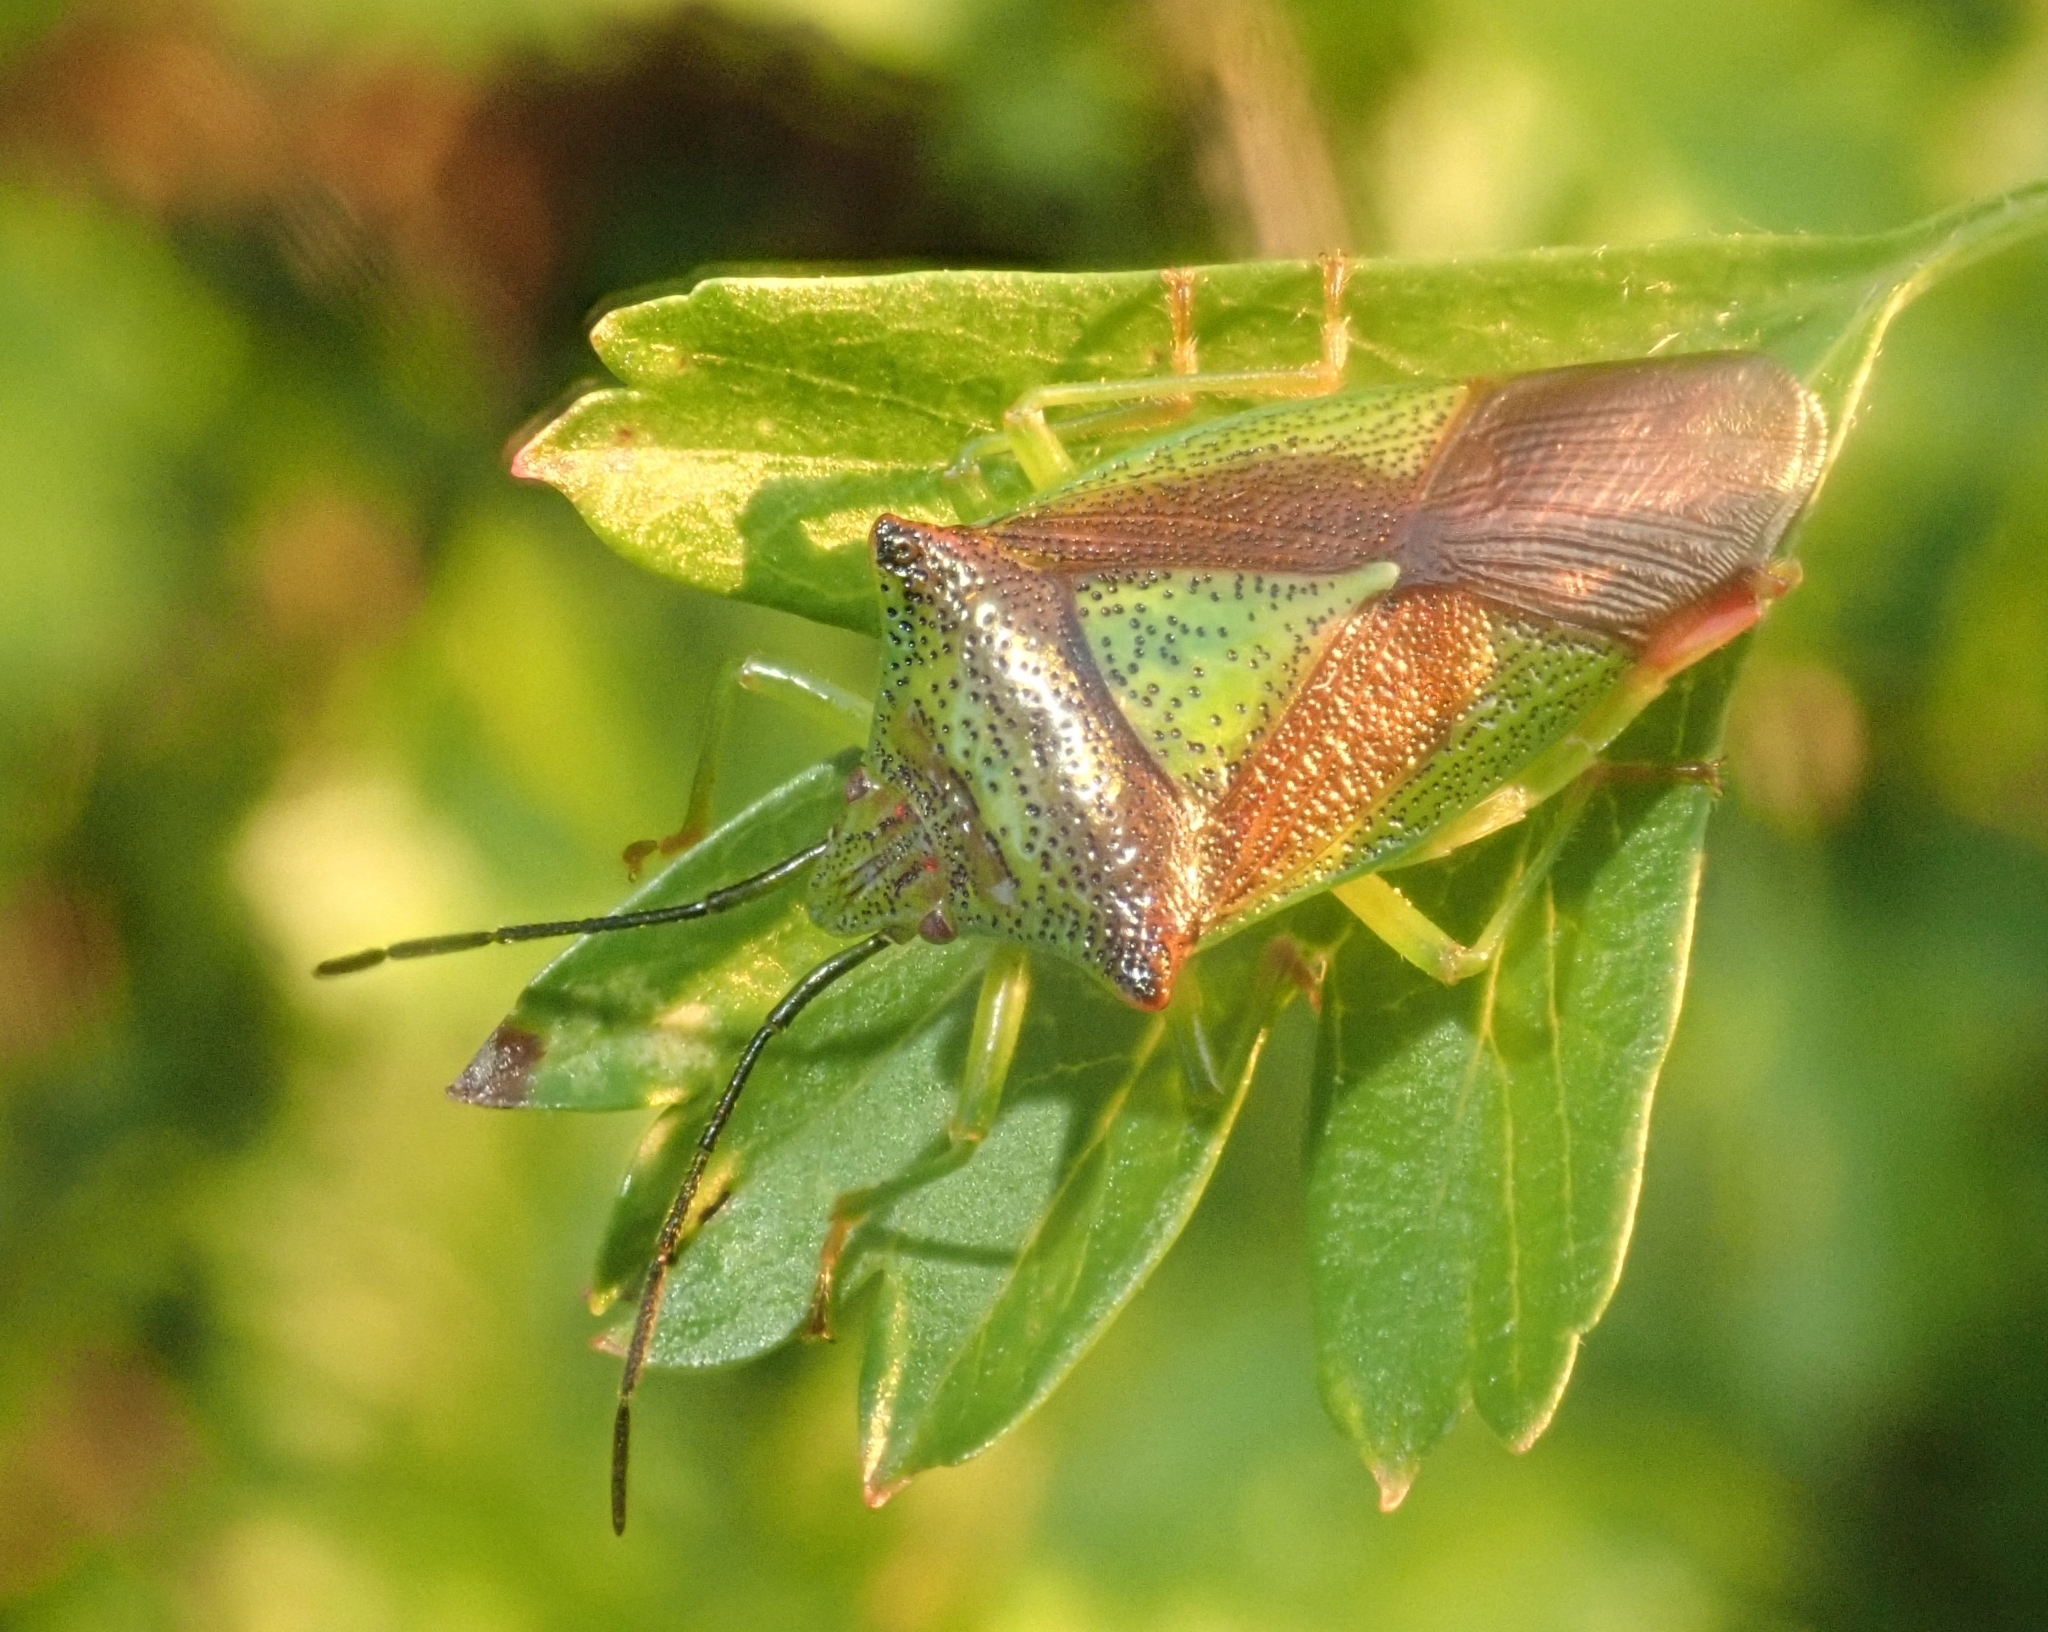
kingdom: Animalia
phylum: Arthropoda
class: Insecta
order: Hemiptera
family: Acanthosomatidae
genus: Acanthosoma
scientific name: Acanthosoma haemorrhoidale
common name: Hawthorn shieldbug
